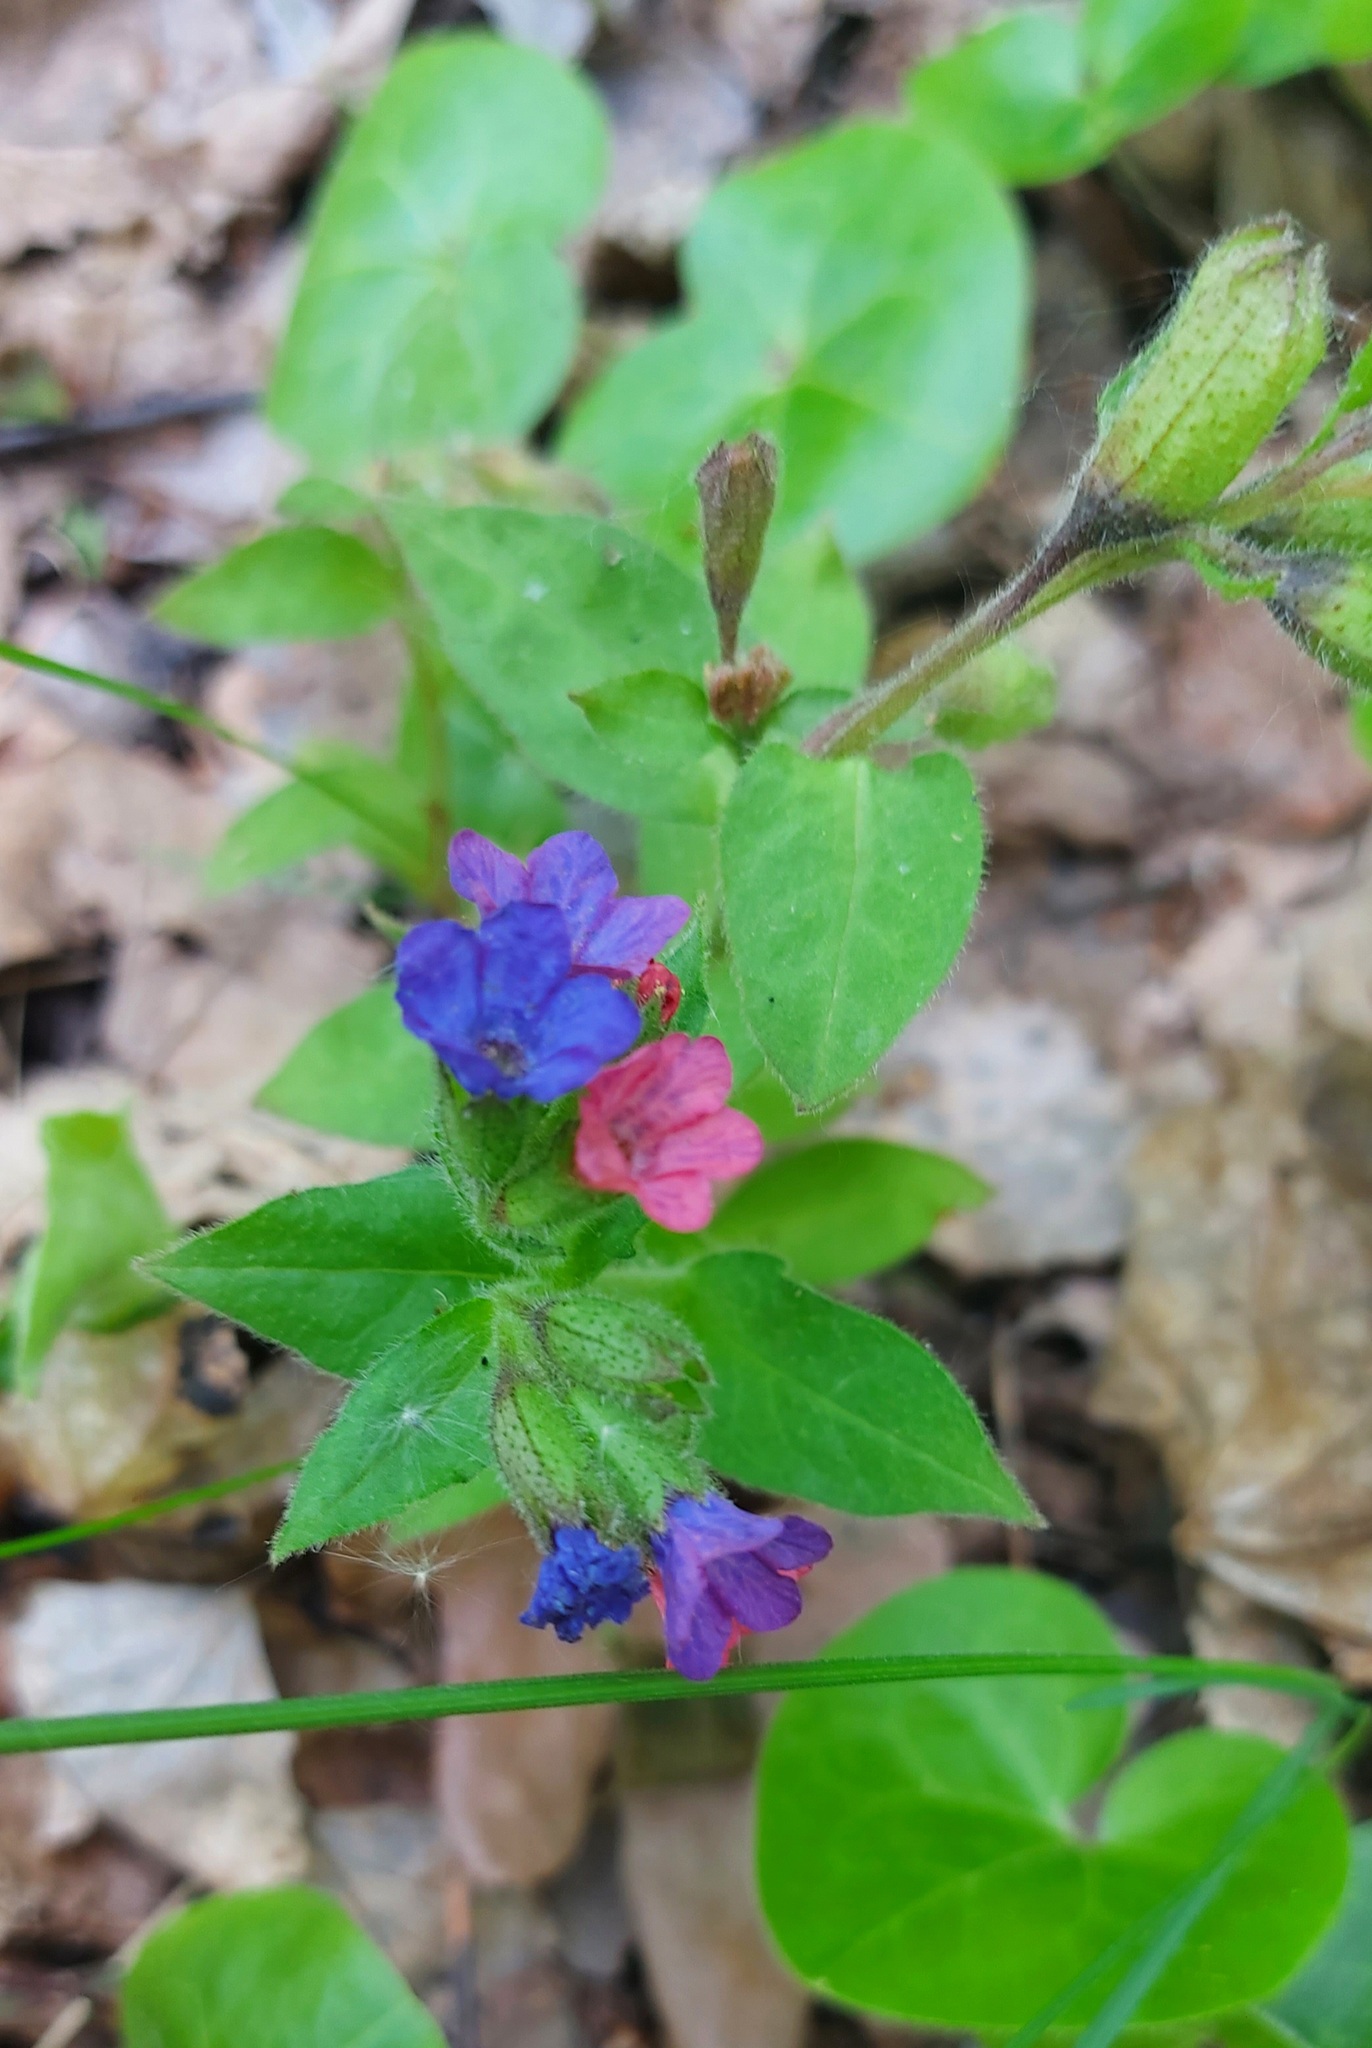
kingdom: Plantae
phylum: Tracheophyta
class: Magnoliopsida
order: Boraginales
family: Boraginaceae
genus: Pulmonaria
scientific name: Pulmonaria obscura
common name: Suffolk lungwort
